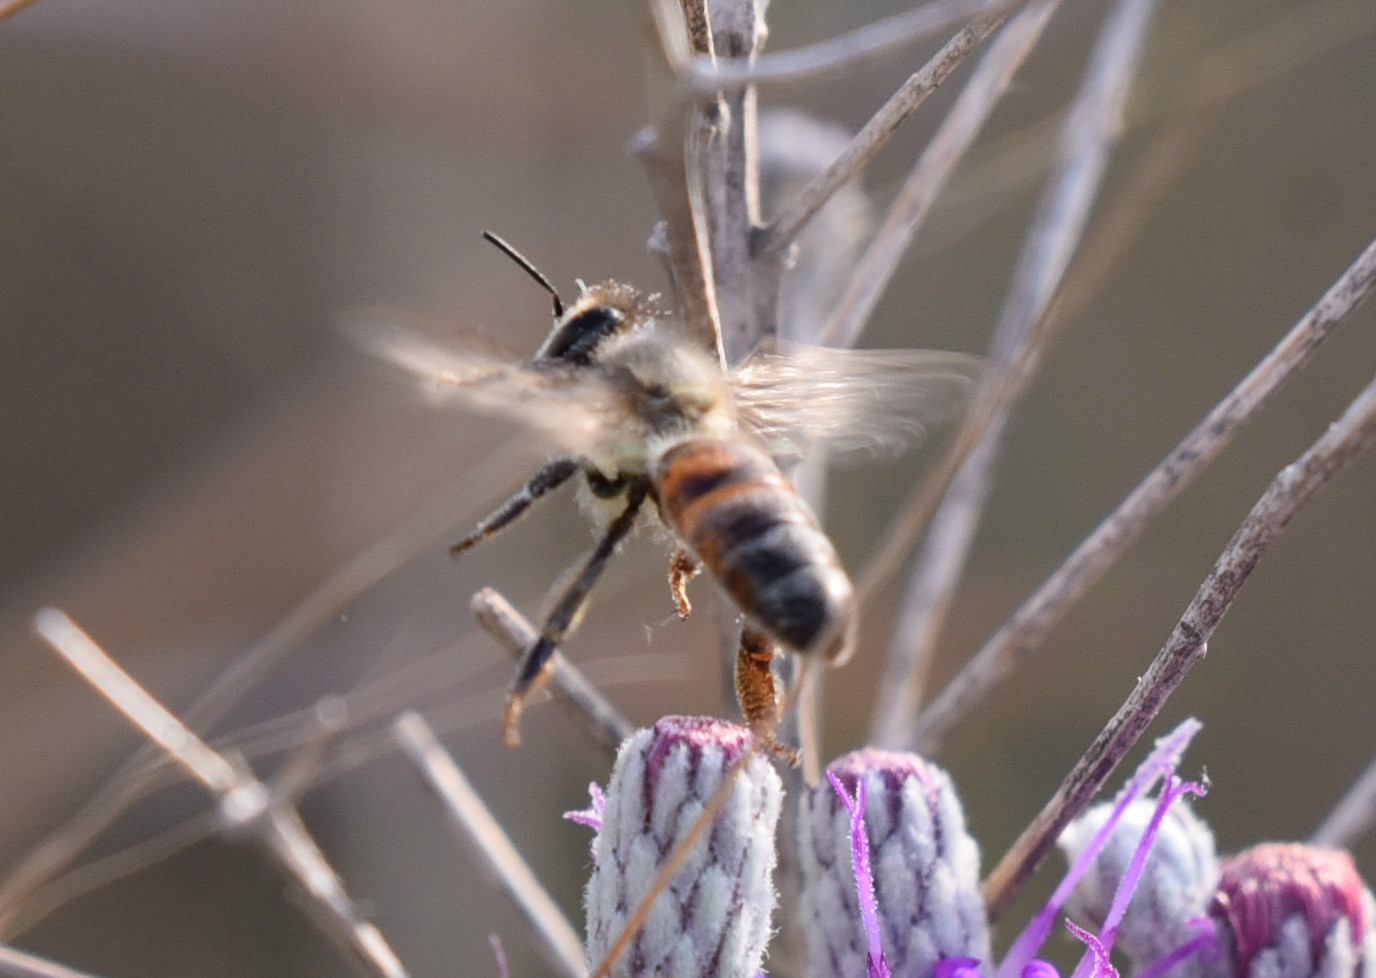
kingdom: Animalia
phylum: Arthropoda
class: Insecta
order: Hymenoptera
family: Apidae
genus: Apis
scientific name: Apis mellifera
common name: Honey bee
